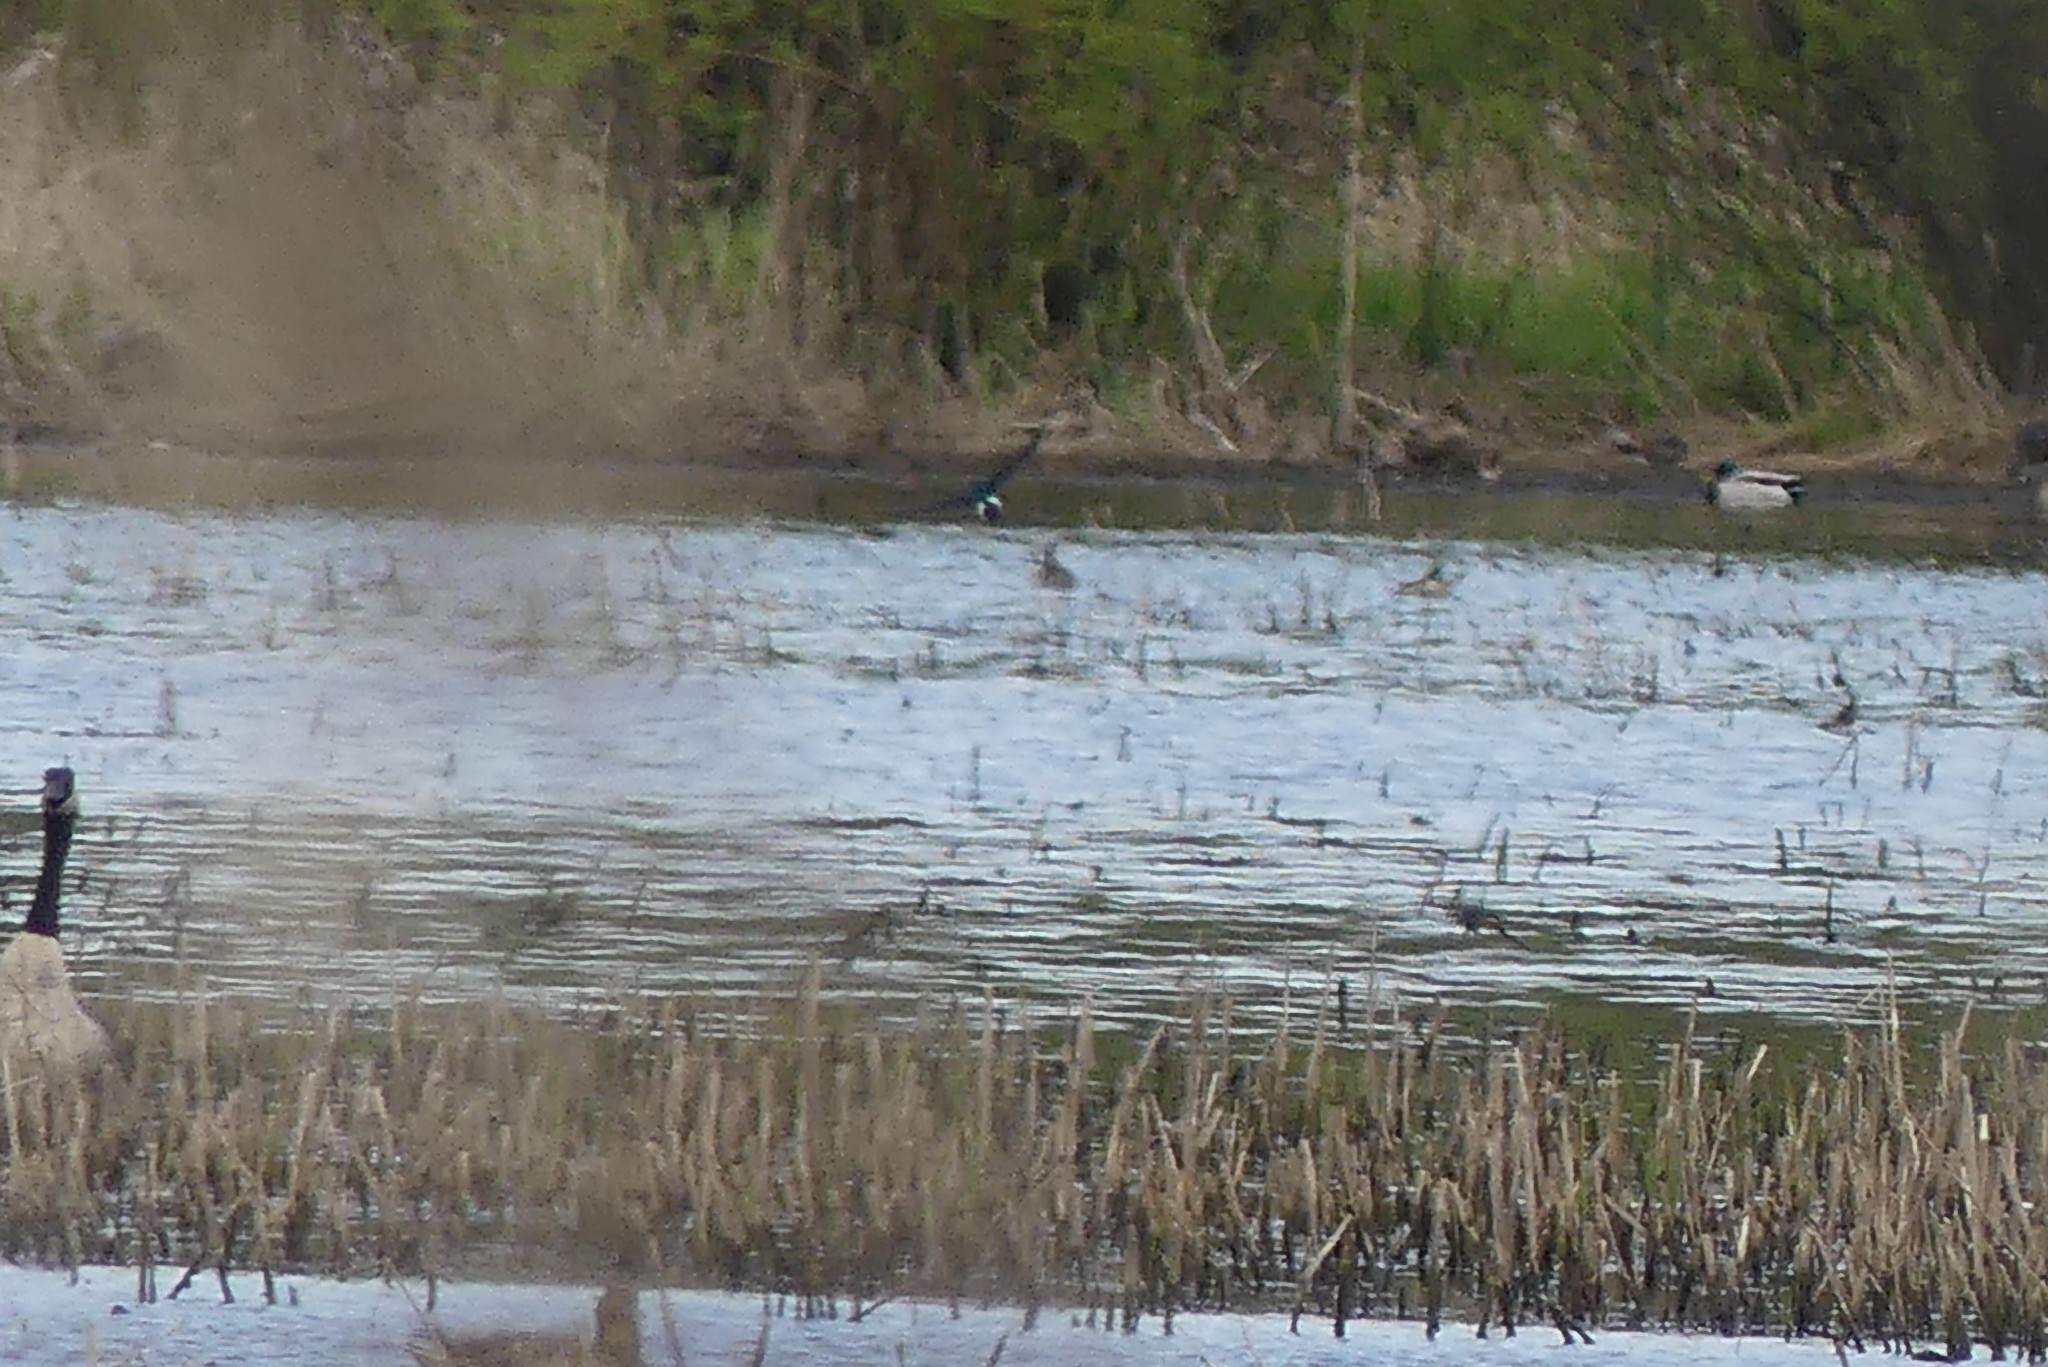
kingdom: Animalia
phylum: Chordata
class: Aves
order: Passeriformes
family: Hirundinidae
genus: Tachycineta
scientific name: Tachycineta thalassina
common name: Violet-green swallow
